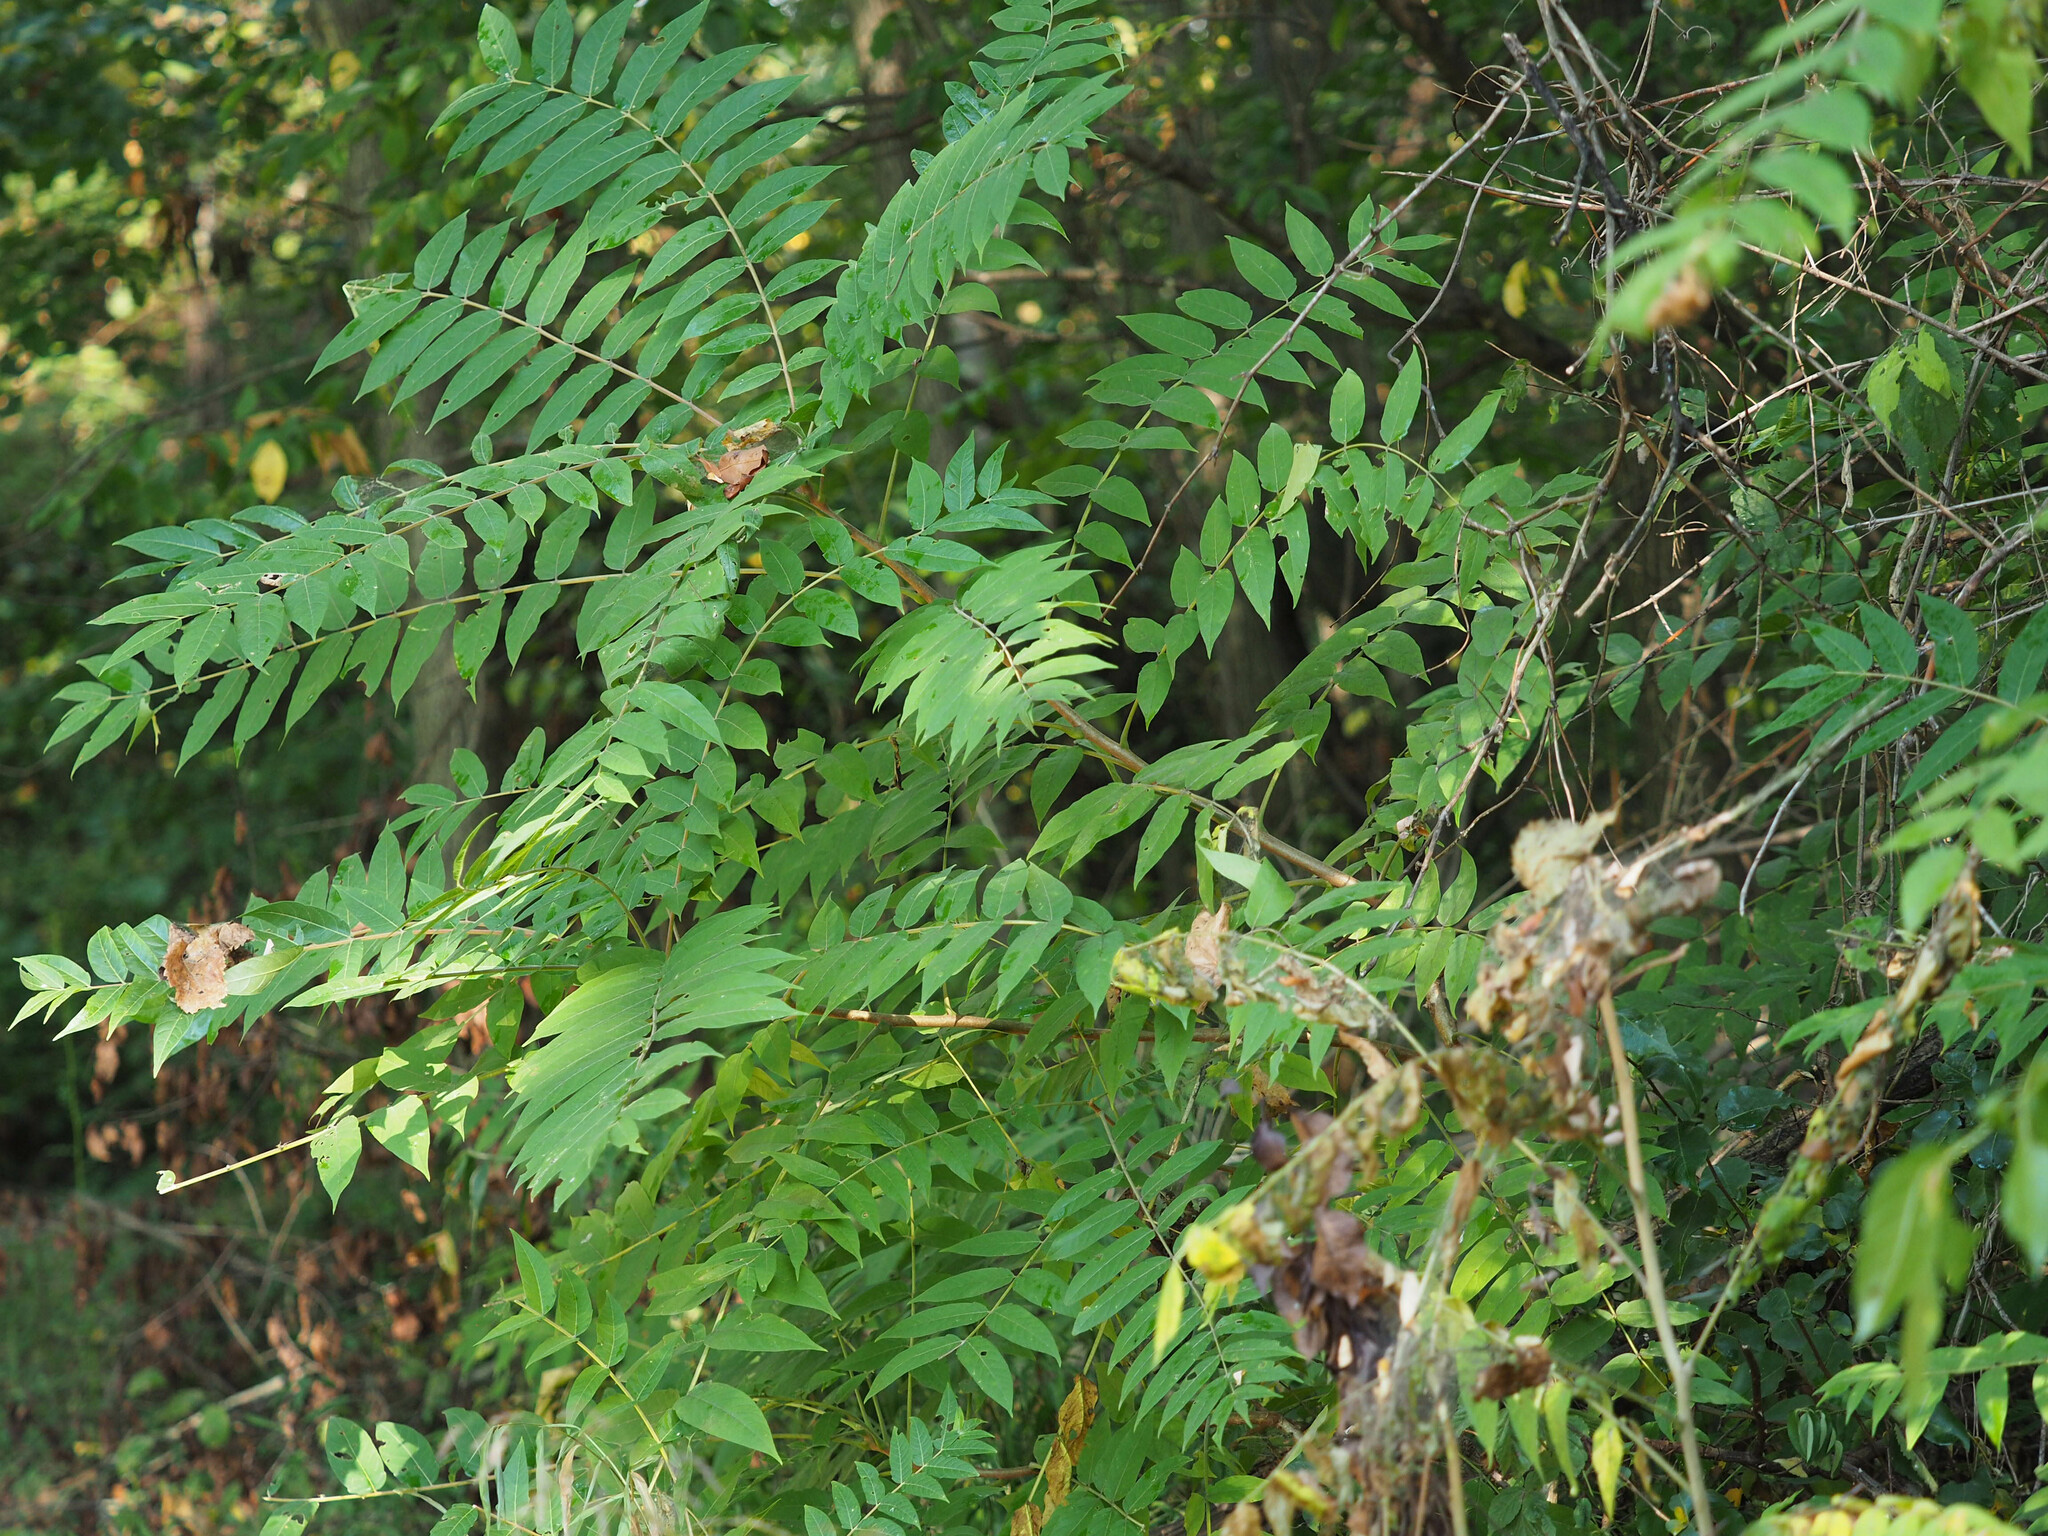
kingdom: Plantae
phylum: Tracheophyta
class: Magnoliopsida
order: Sapindales
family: Simaroubaceae
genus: Ailanthus
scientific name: Ailanthus altissima
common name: Tree-of-heaven
